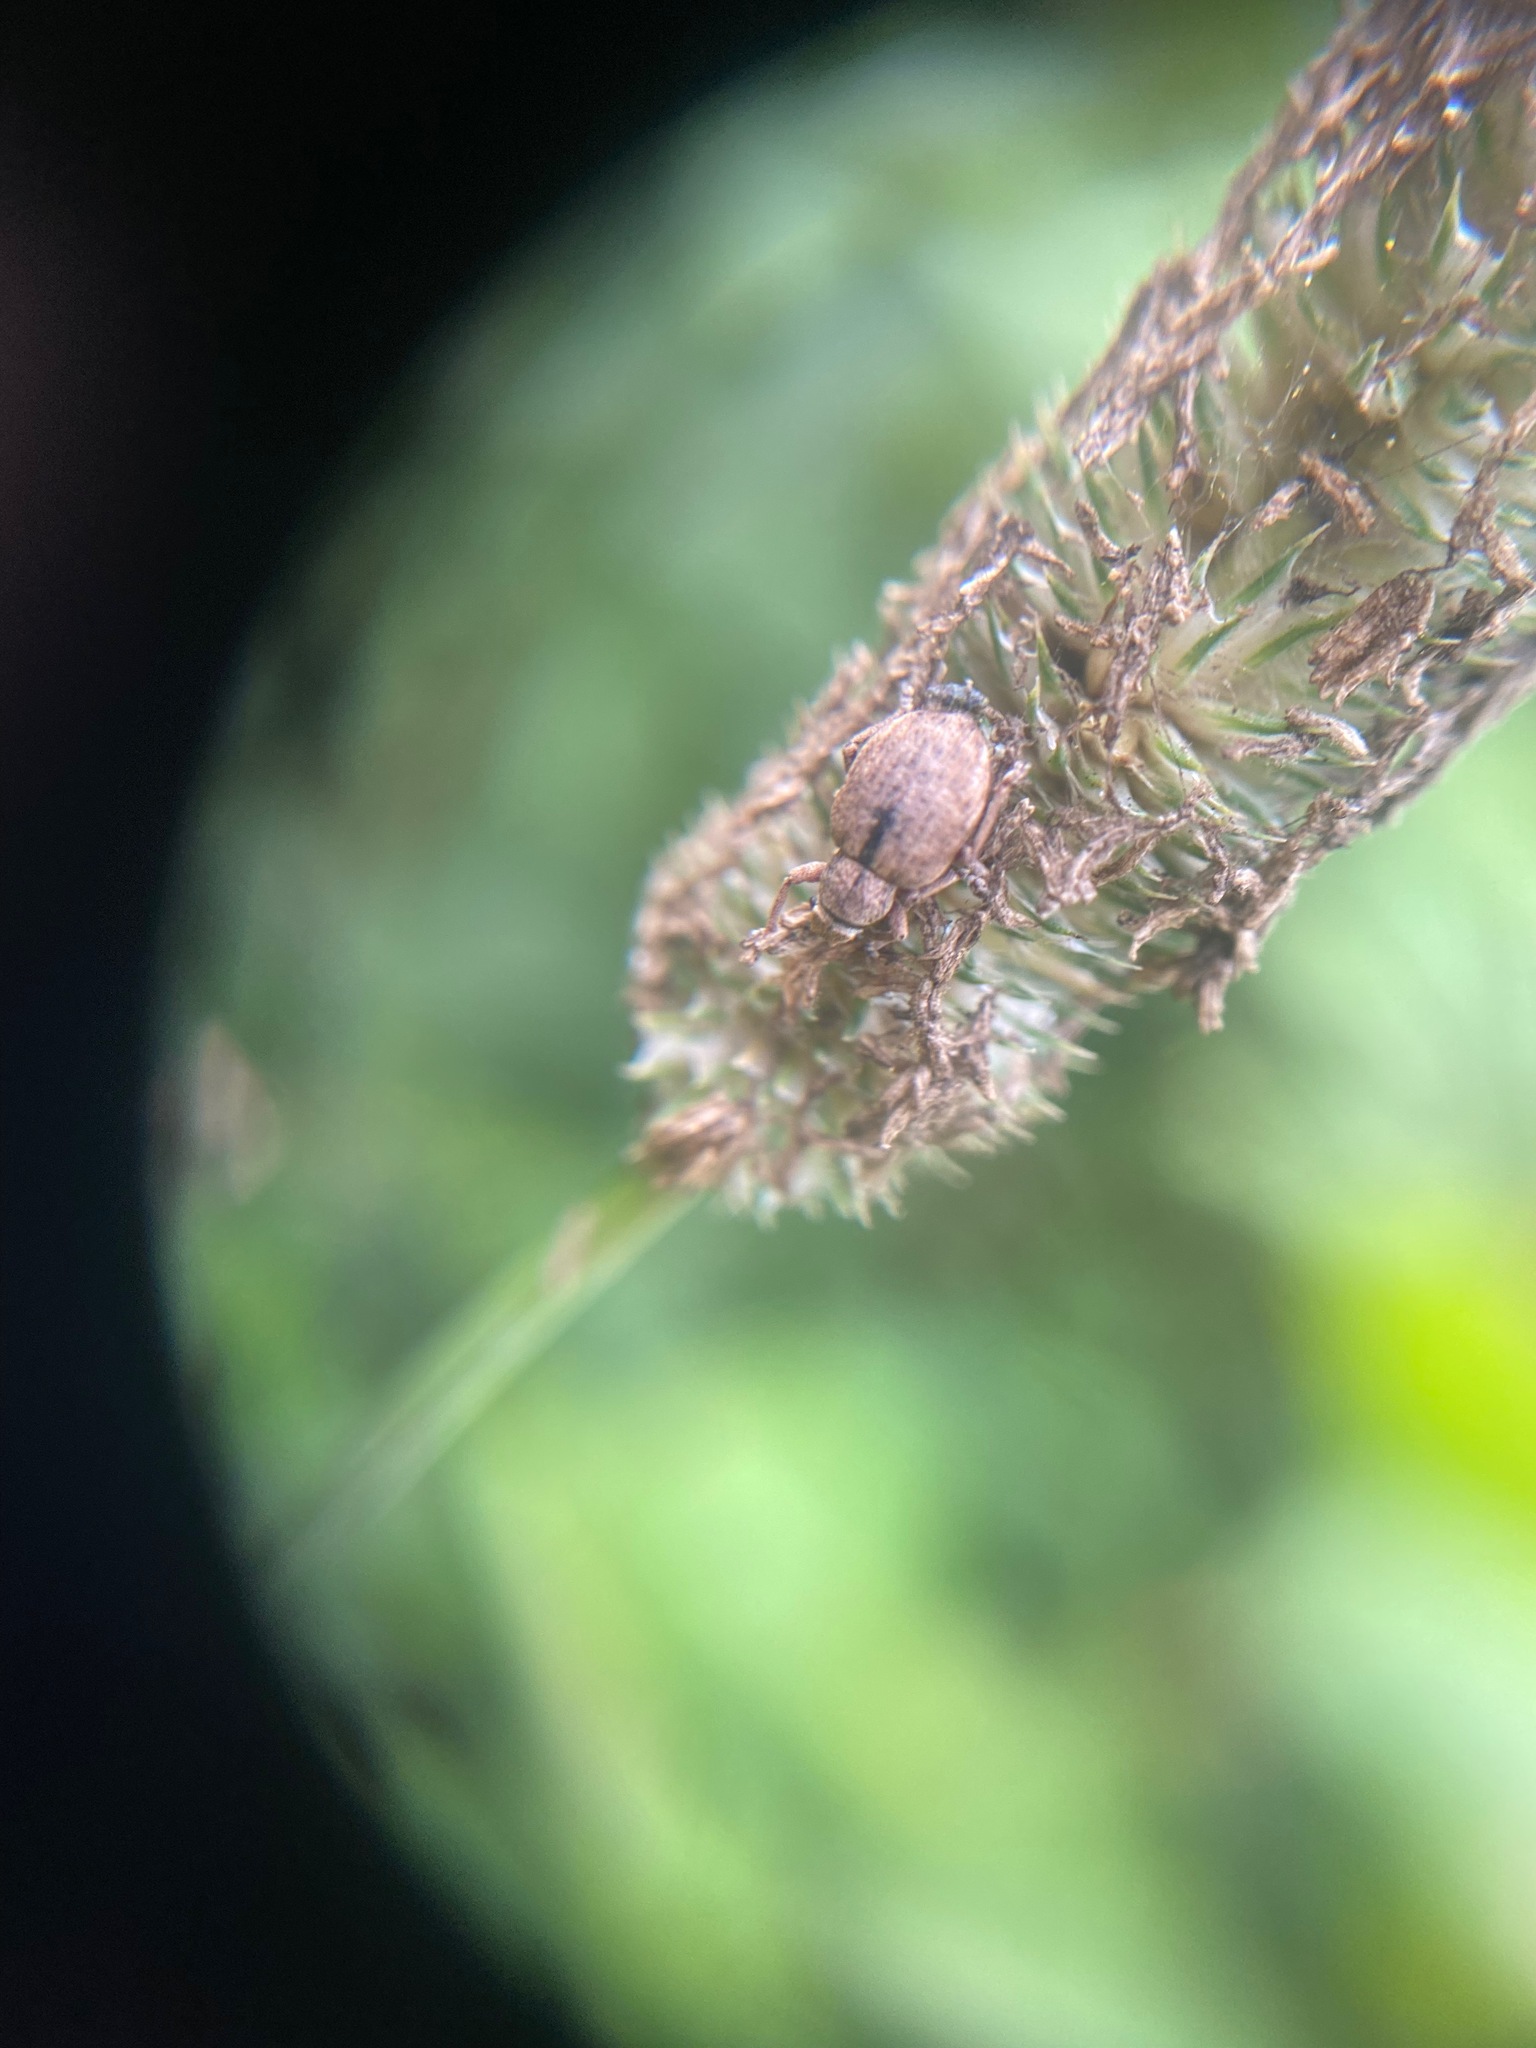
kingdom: Animalia
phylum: Arthropoda
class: Insecta
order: Coleoptera
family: Curculionidae
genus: Strophosoma
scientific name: Strophosoma melanogrammum
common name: Weevil
